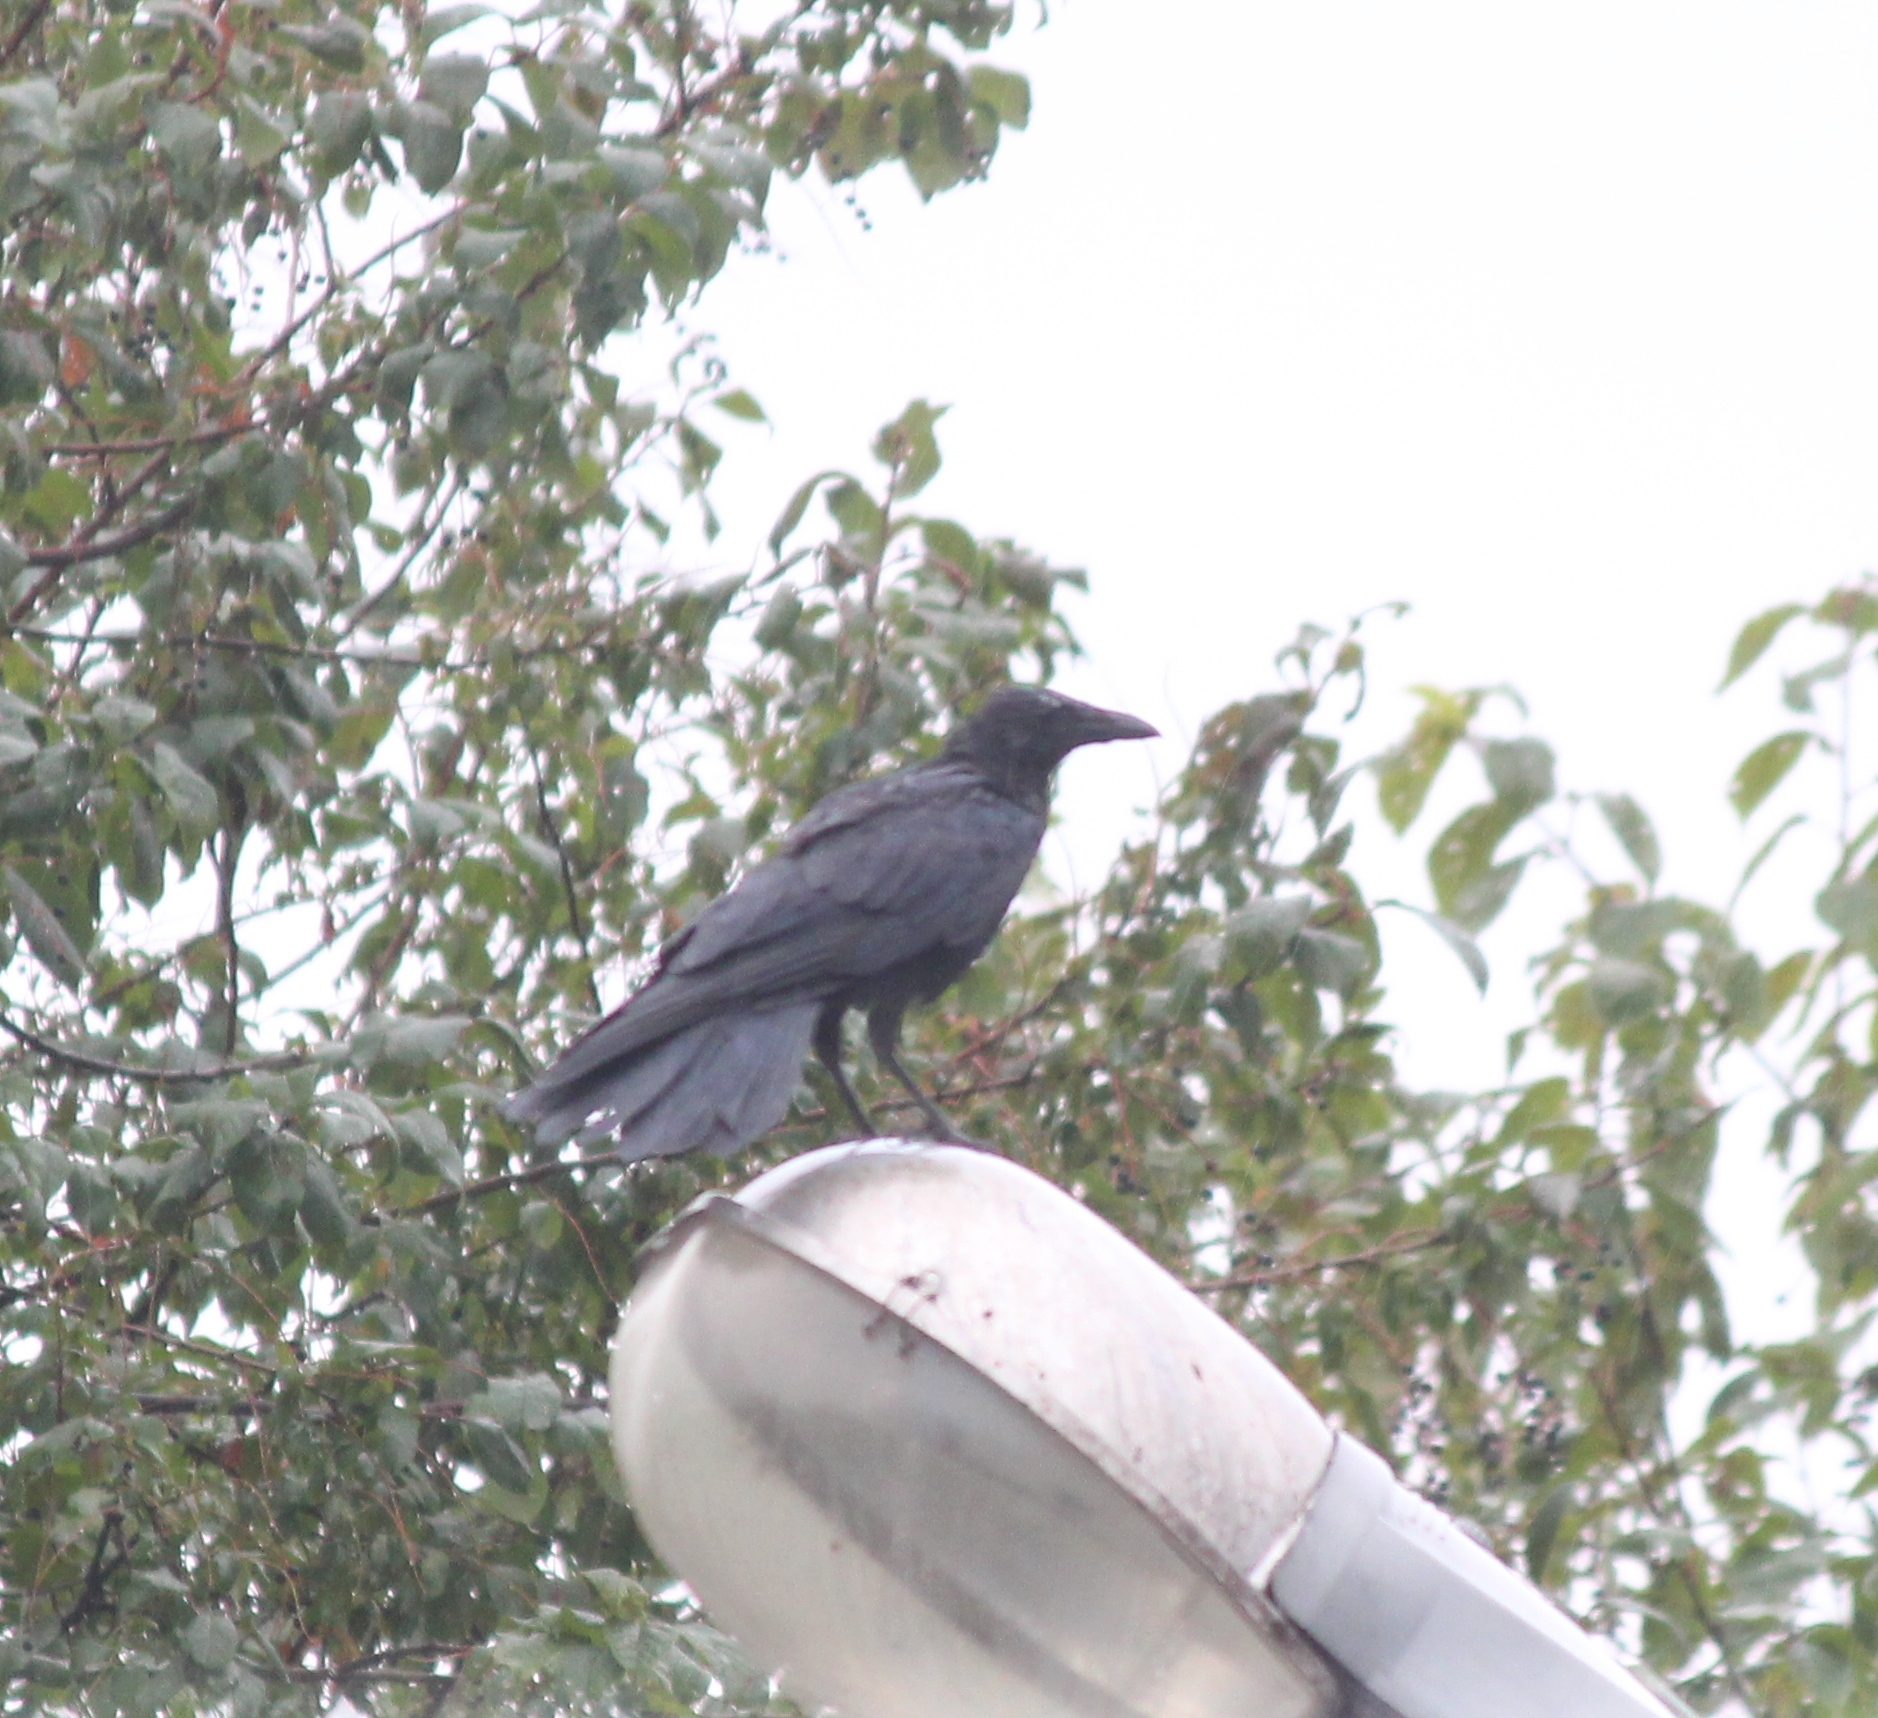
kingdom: Animalia
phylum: Chordata
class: Aves
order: Passeriformes
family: Corvidae
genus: Corvus
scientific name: Corvus corone
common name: Carrion crow
